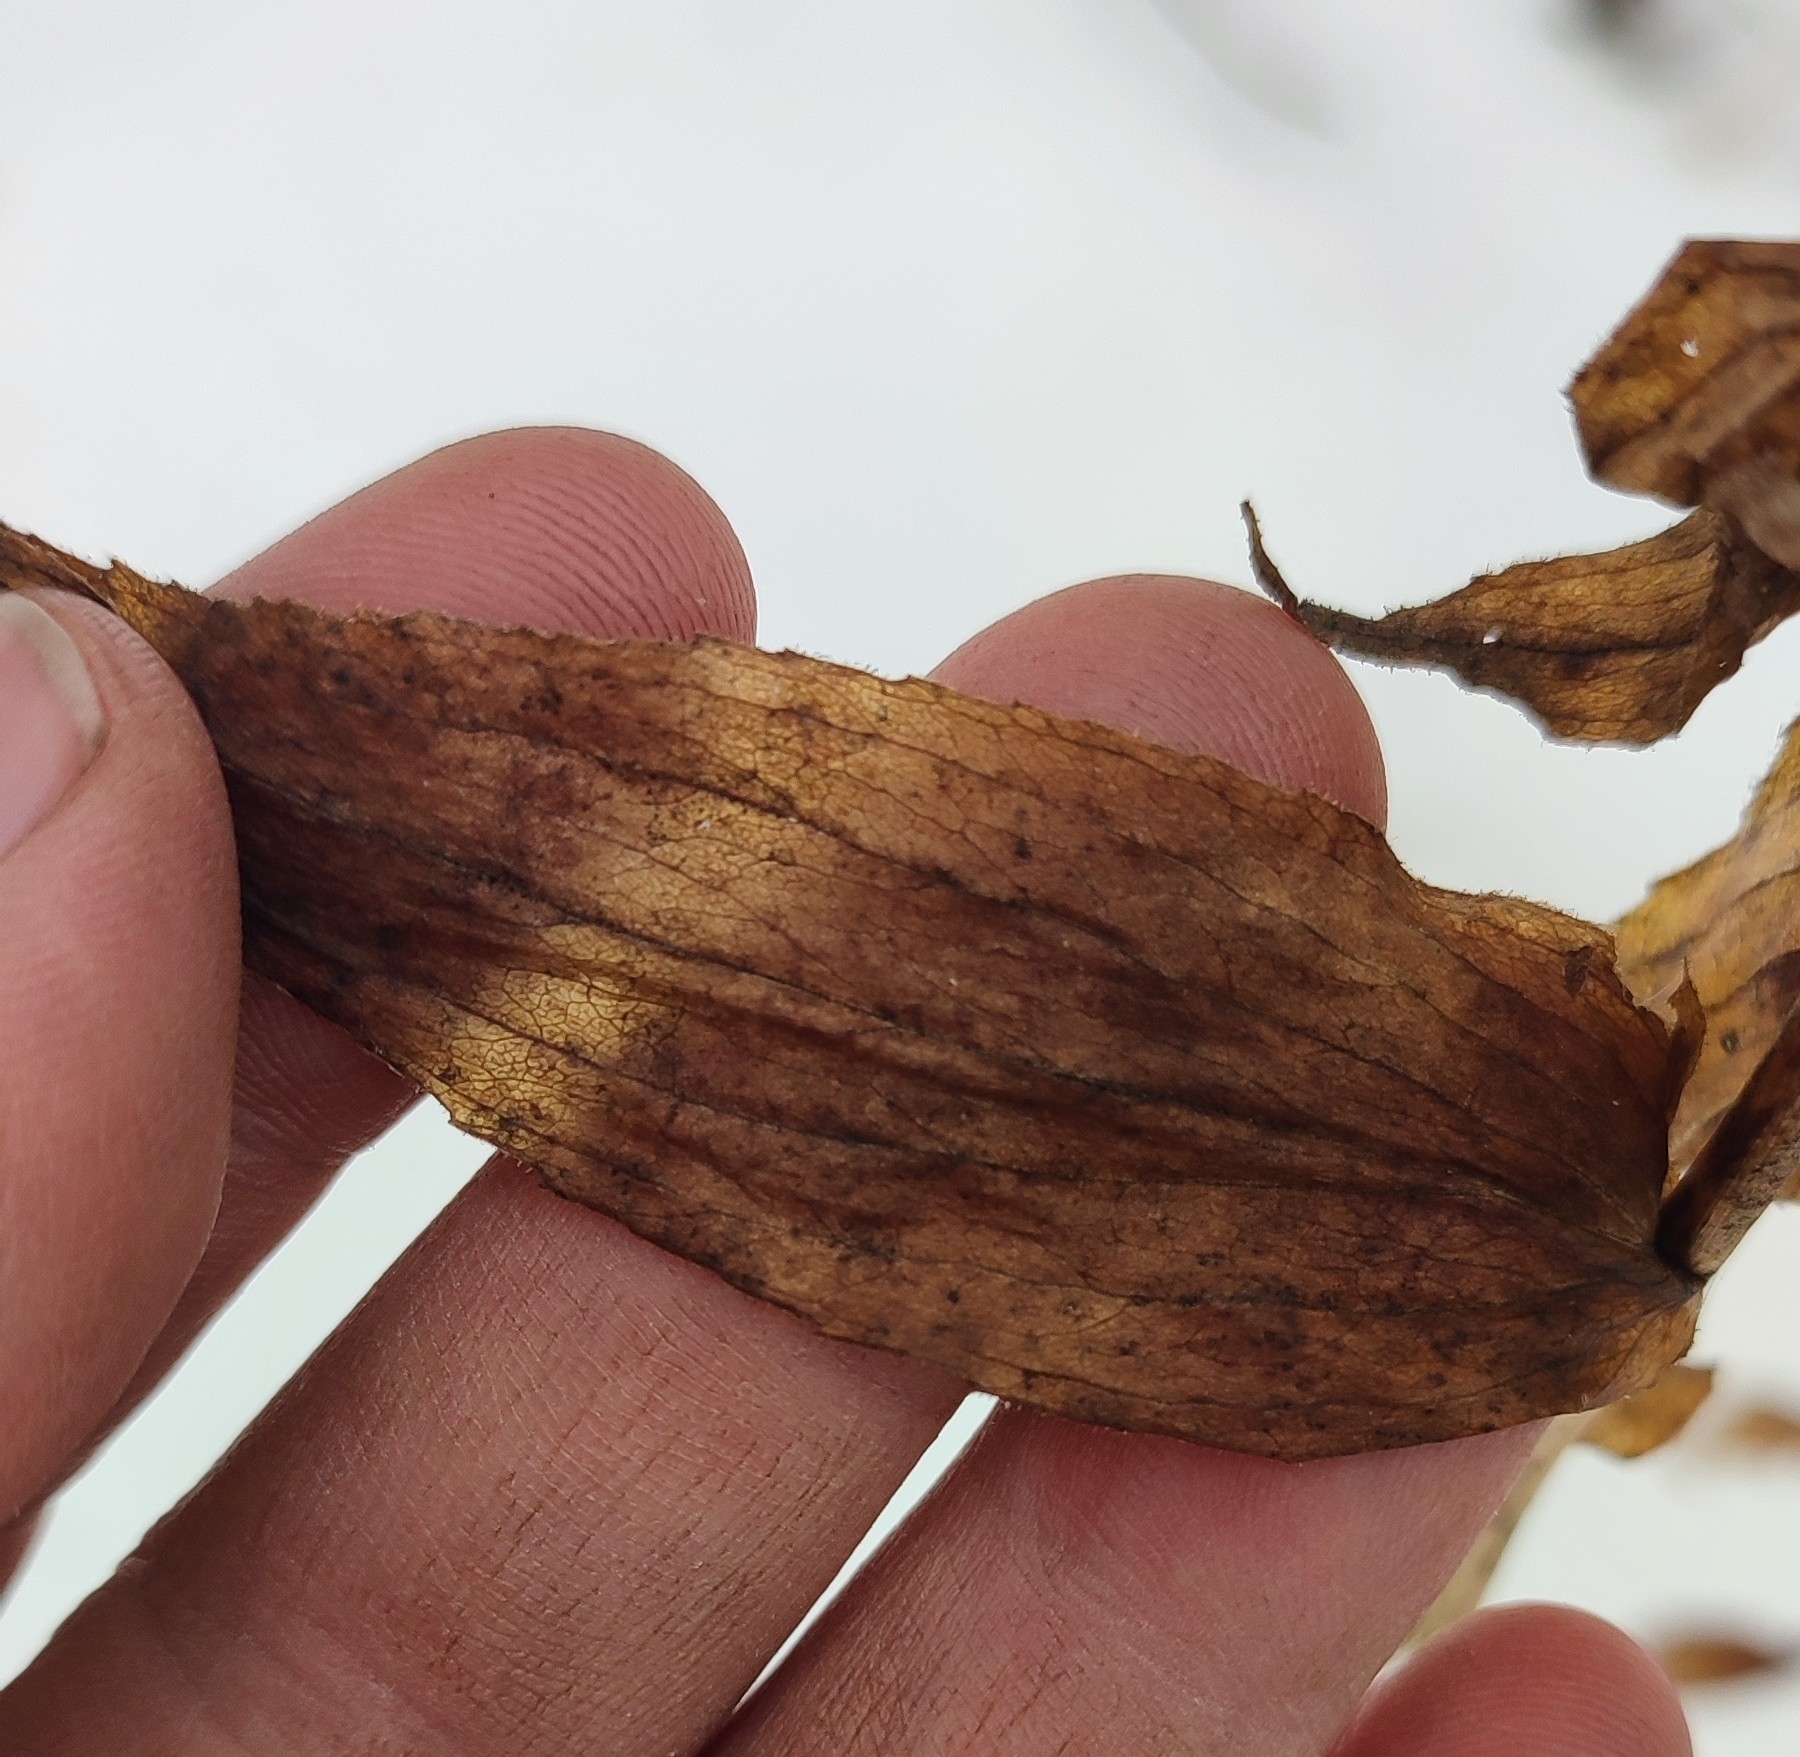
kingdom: Plantae
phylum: Tracheophyta
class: Magnoliopsida
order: Lamiales
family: Plantaginaceae
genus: Digitalis
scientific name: Digitalis grandiflora
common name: Yellow foxglove
